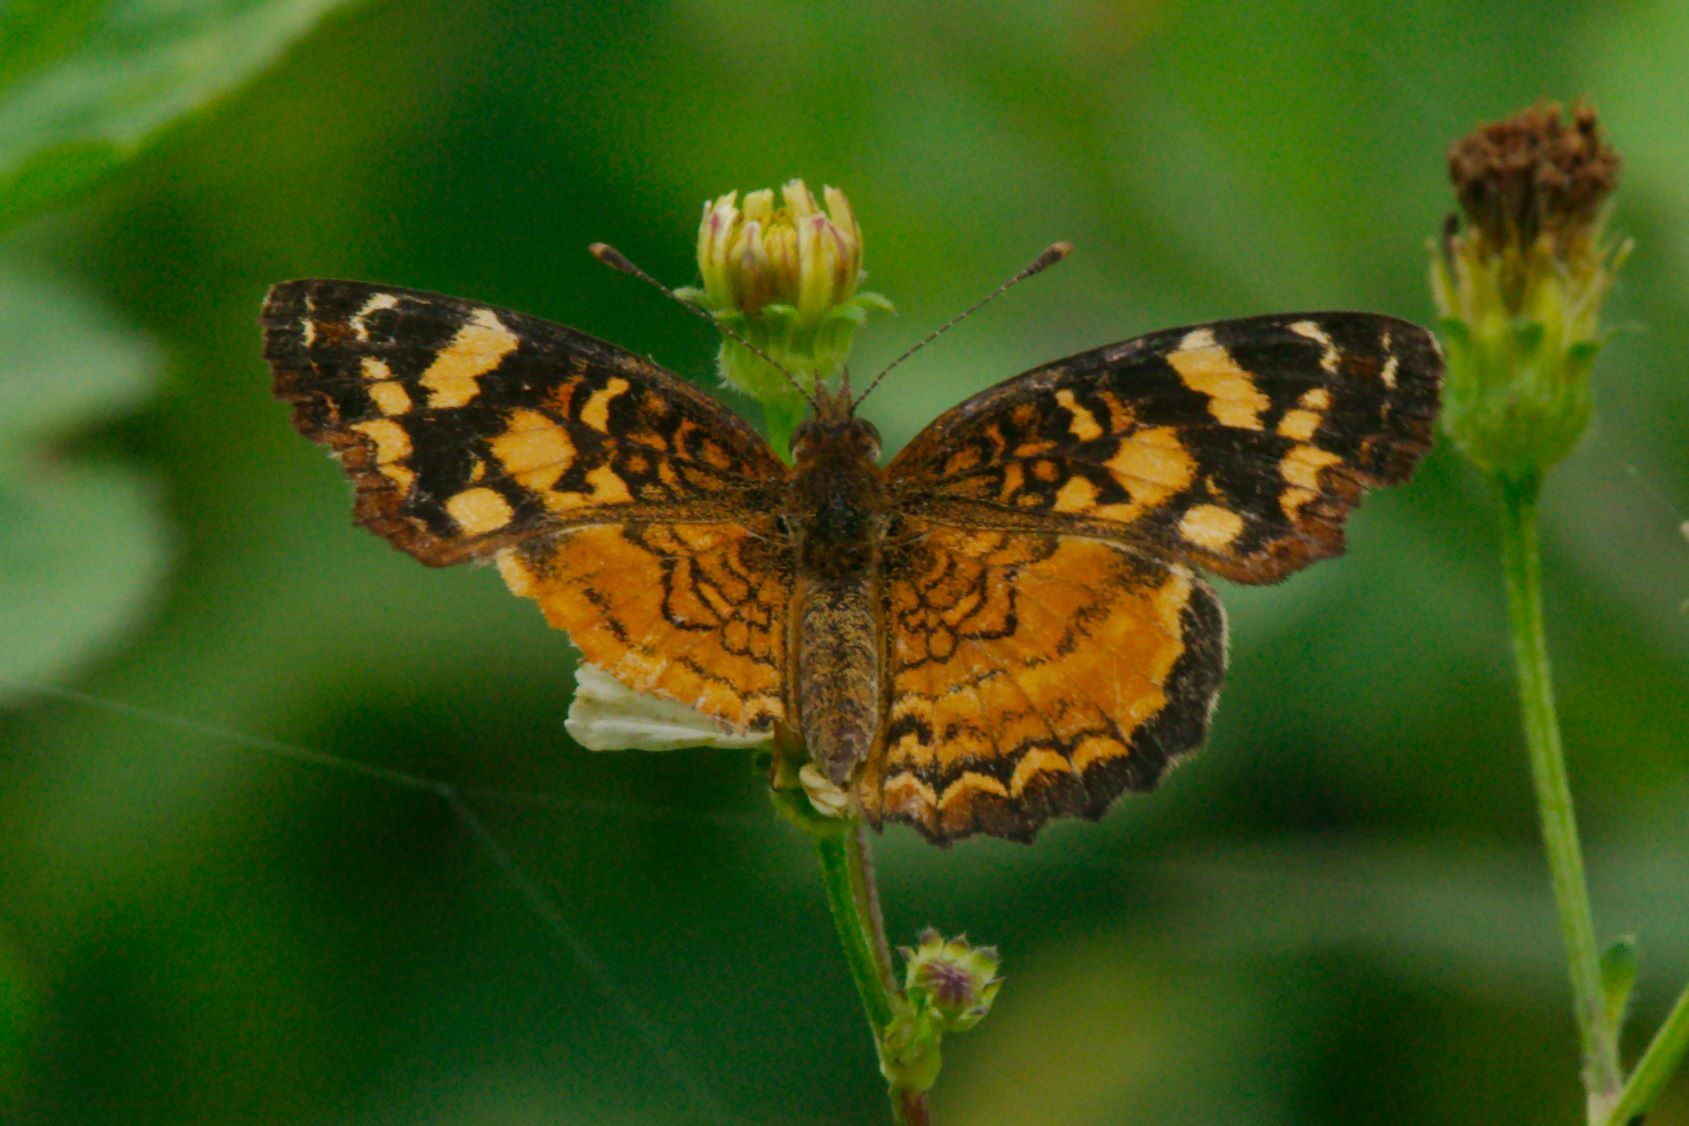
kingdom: Animalia
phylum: Arthropoda
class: Insecta
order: Lepidoptera
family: Nymphalidae
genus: Anthanassa
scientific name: Anthanassa frisia
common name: Cuban crescent
